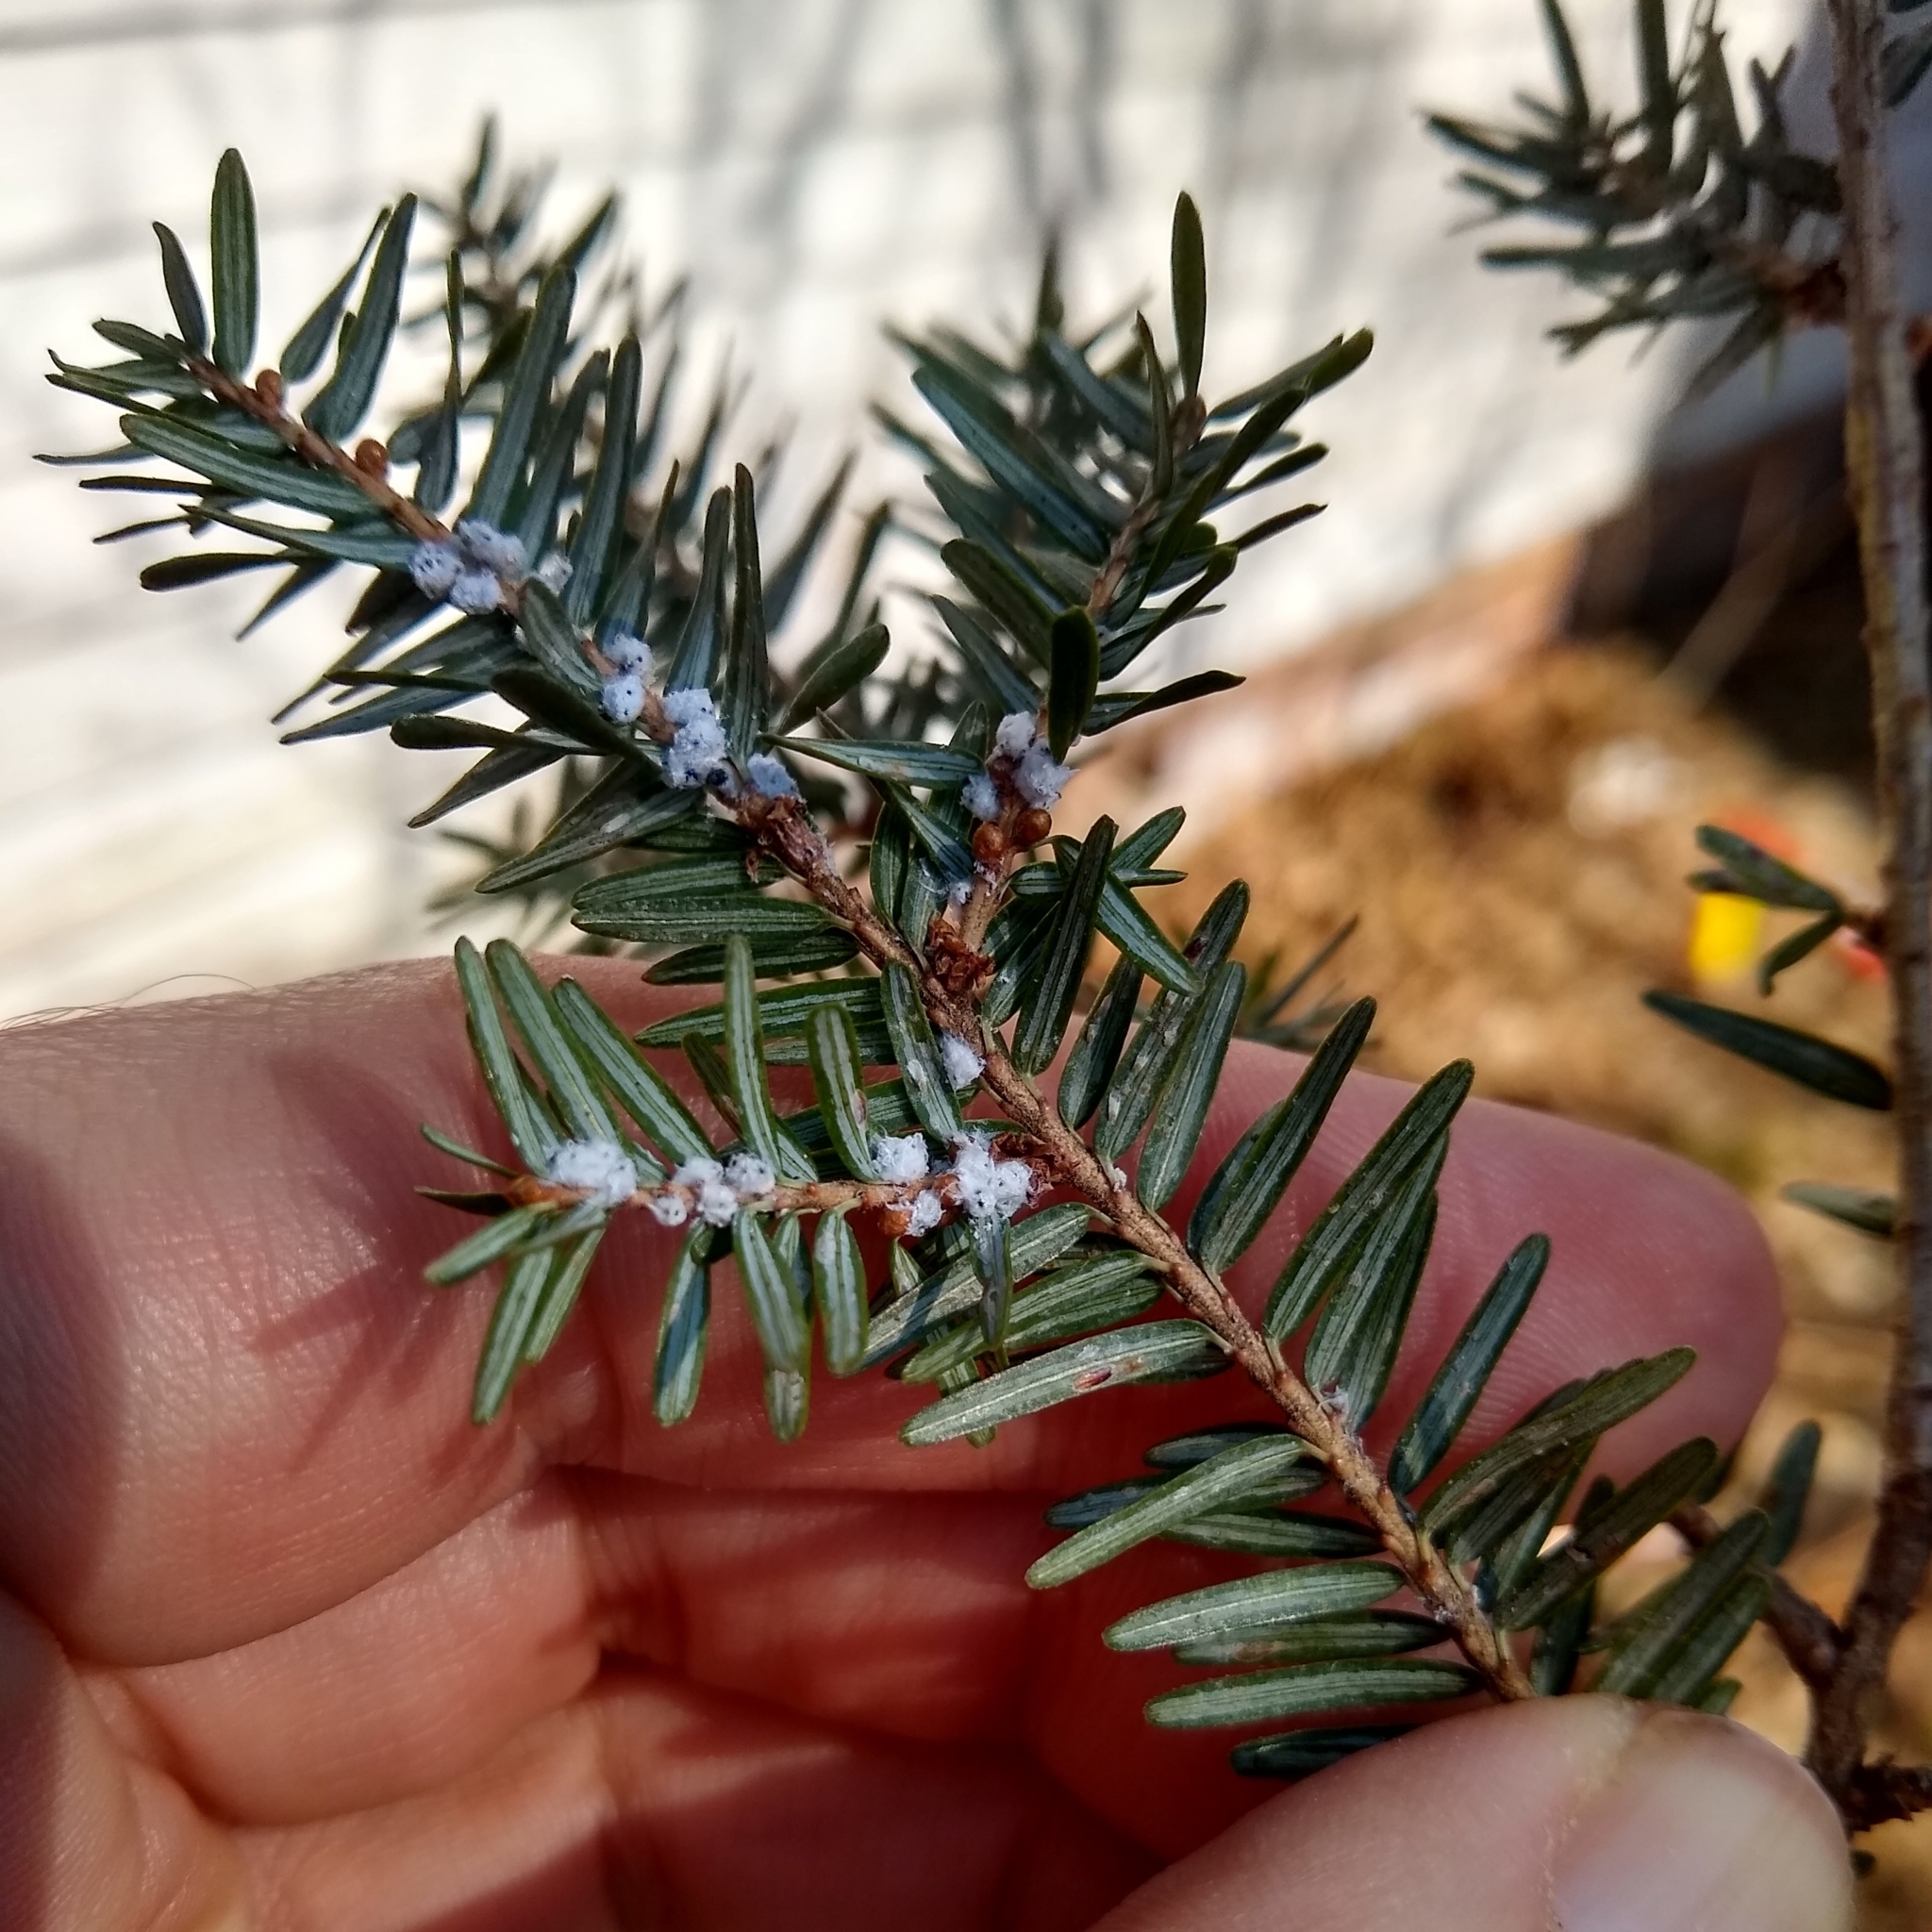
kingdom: Animalia
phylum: Arthropoda
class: Insecta
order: Hemiptera
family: Adelgidae
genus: Adelges
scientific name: Adelges tsugae
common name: Hemlock woolly adelgid
